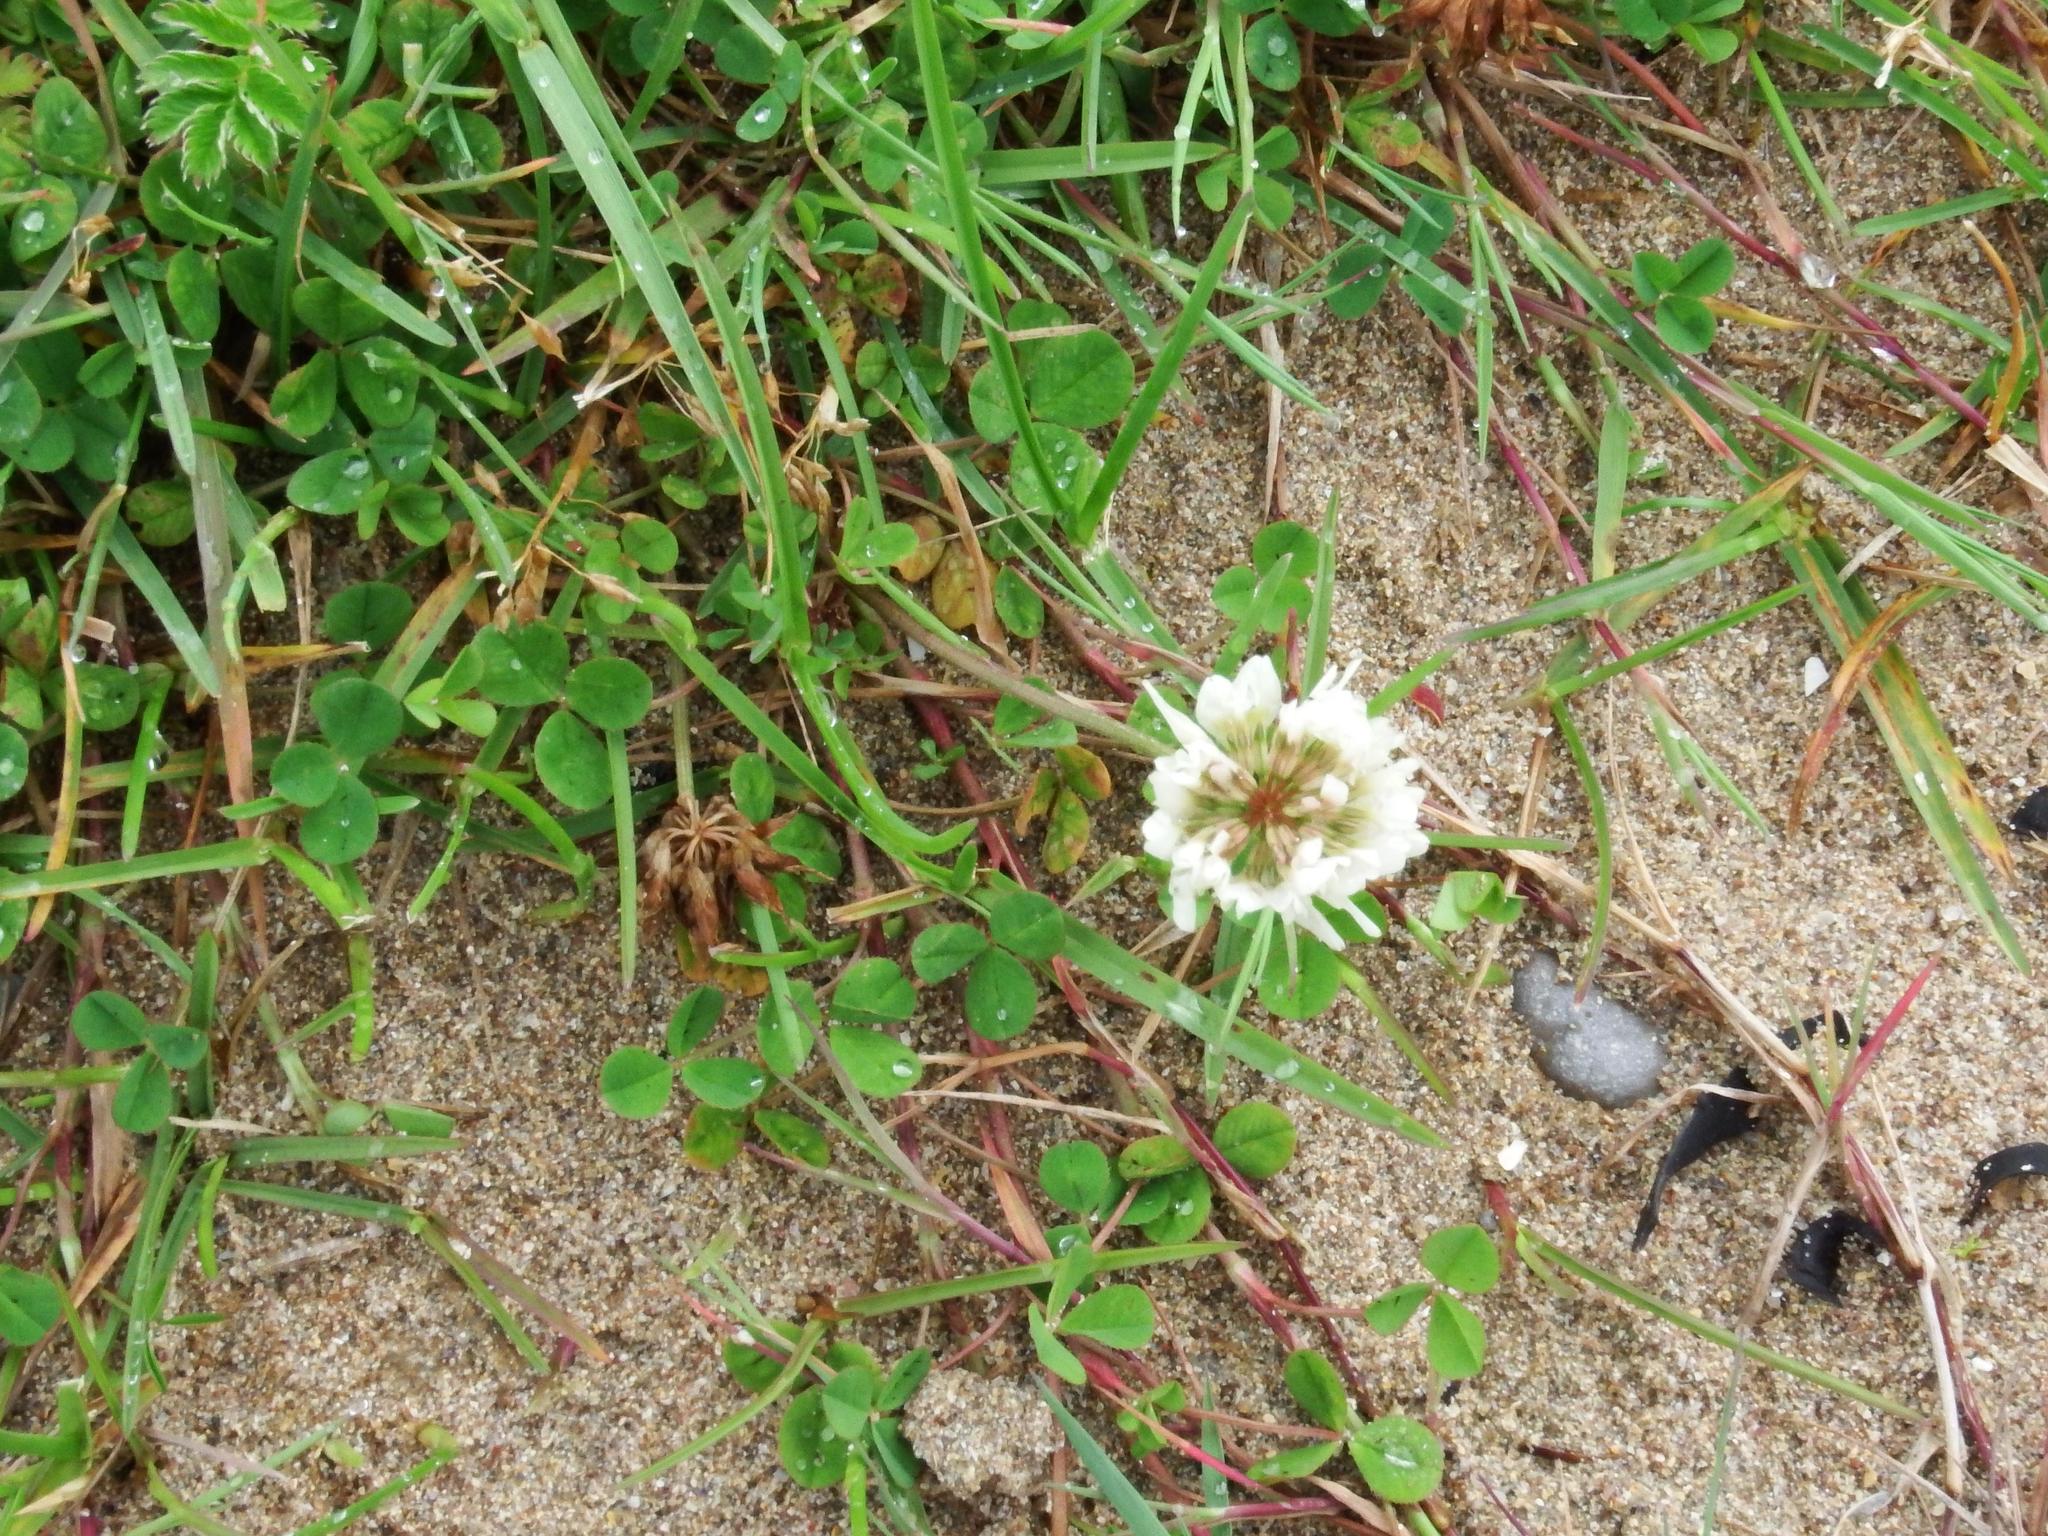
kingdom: Plantae
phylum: Tracheophyta
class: Magnoliopsida
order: Fabales
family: Fabaceae
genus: Trifolium
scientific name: Trifolium repens
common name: White clover
